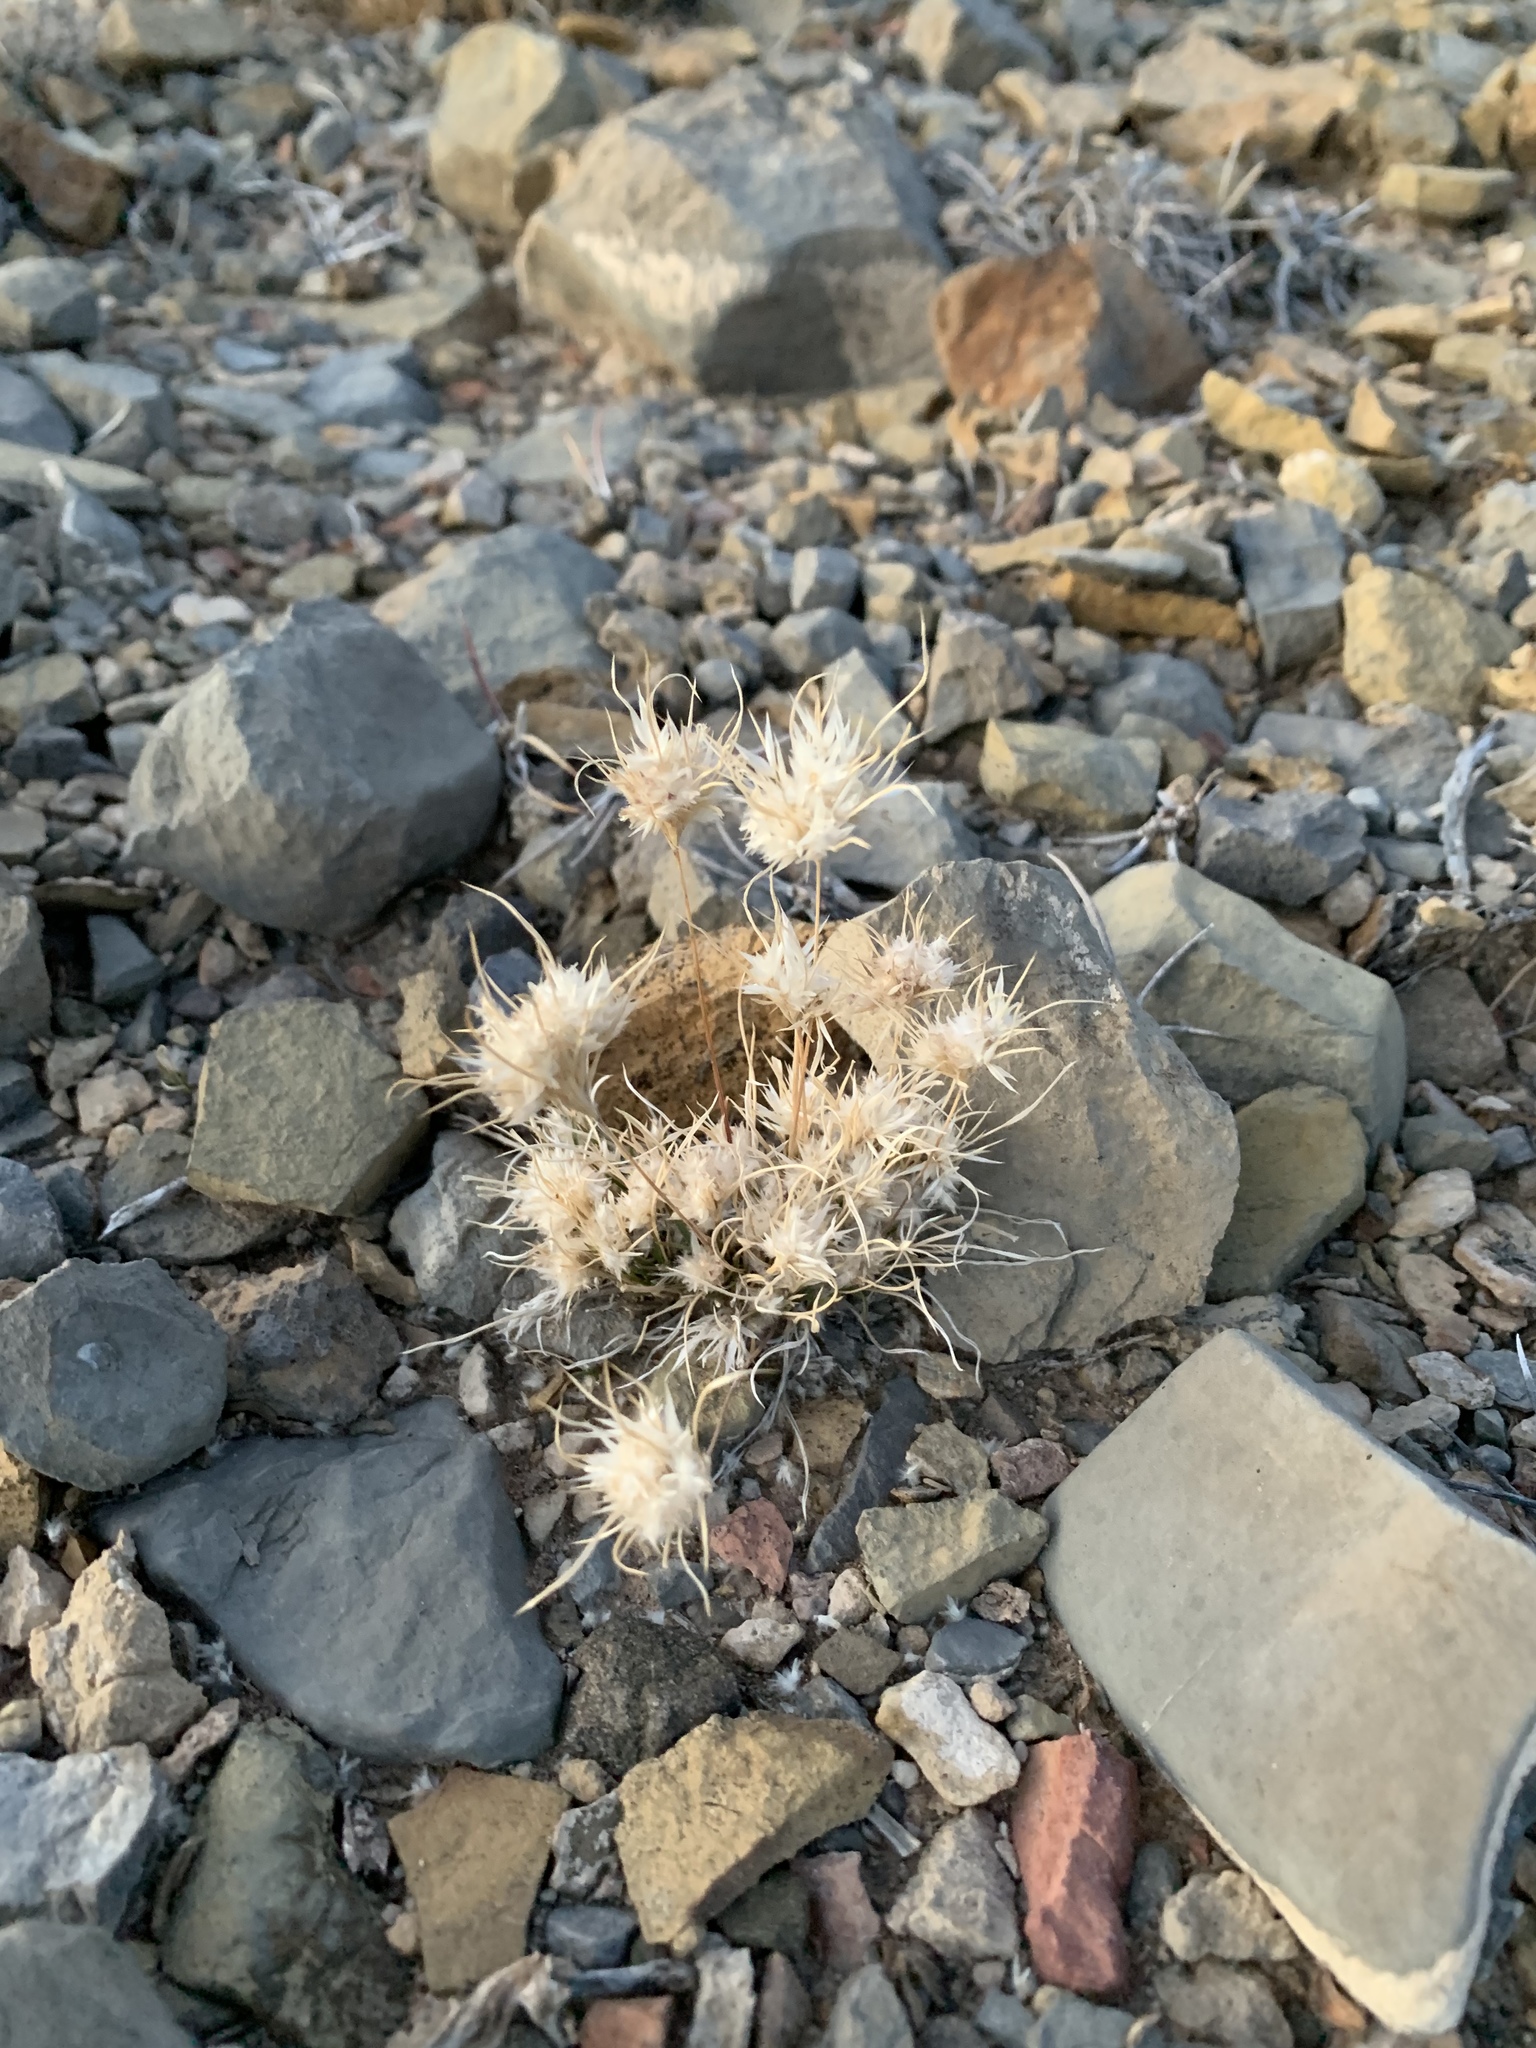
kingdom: Plantae
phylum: Tracheophyta
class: Liliopsida
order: Poales
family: Poaceae
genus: Dasyochloa
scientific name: Dasyochloa pulchella
